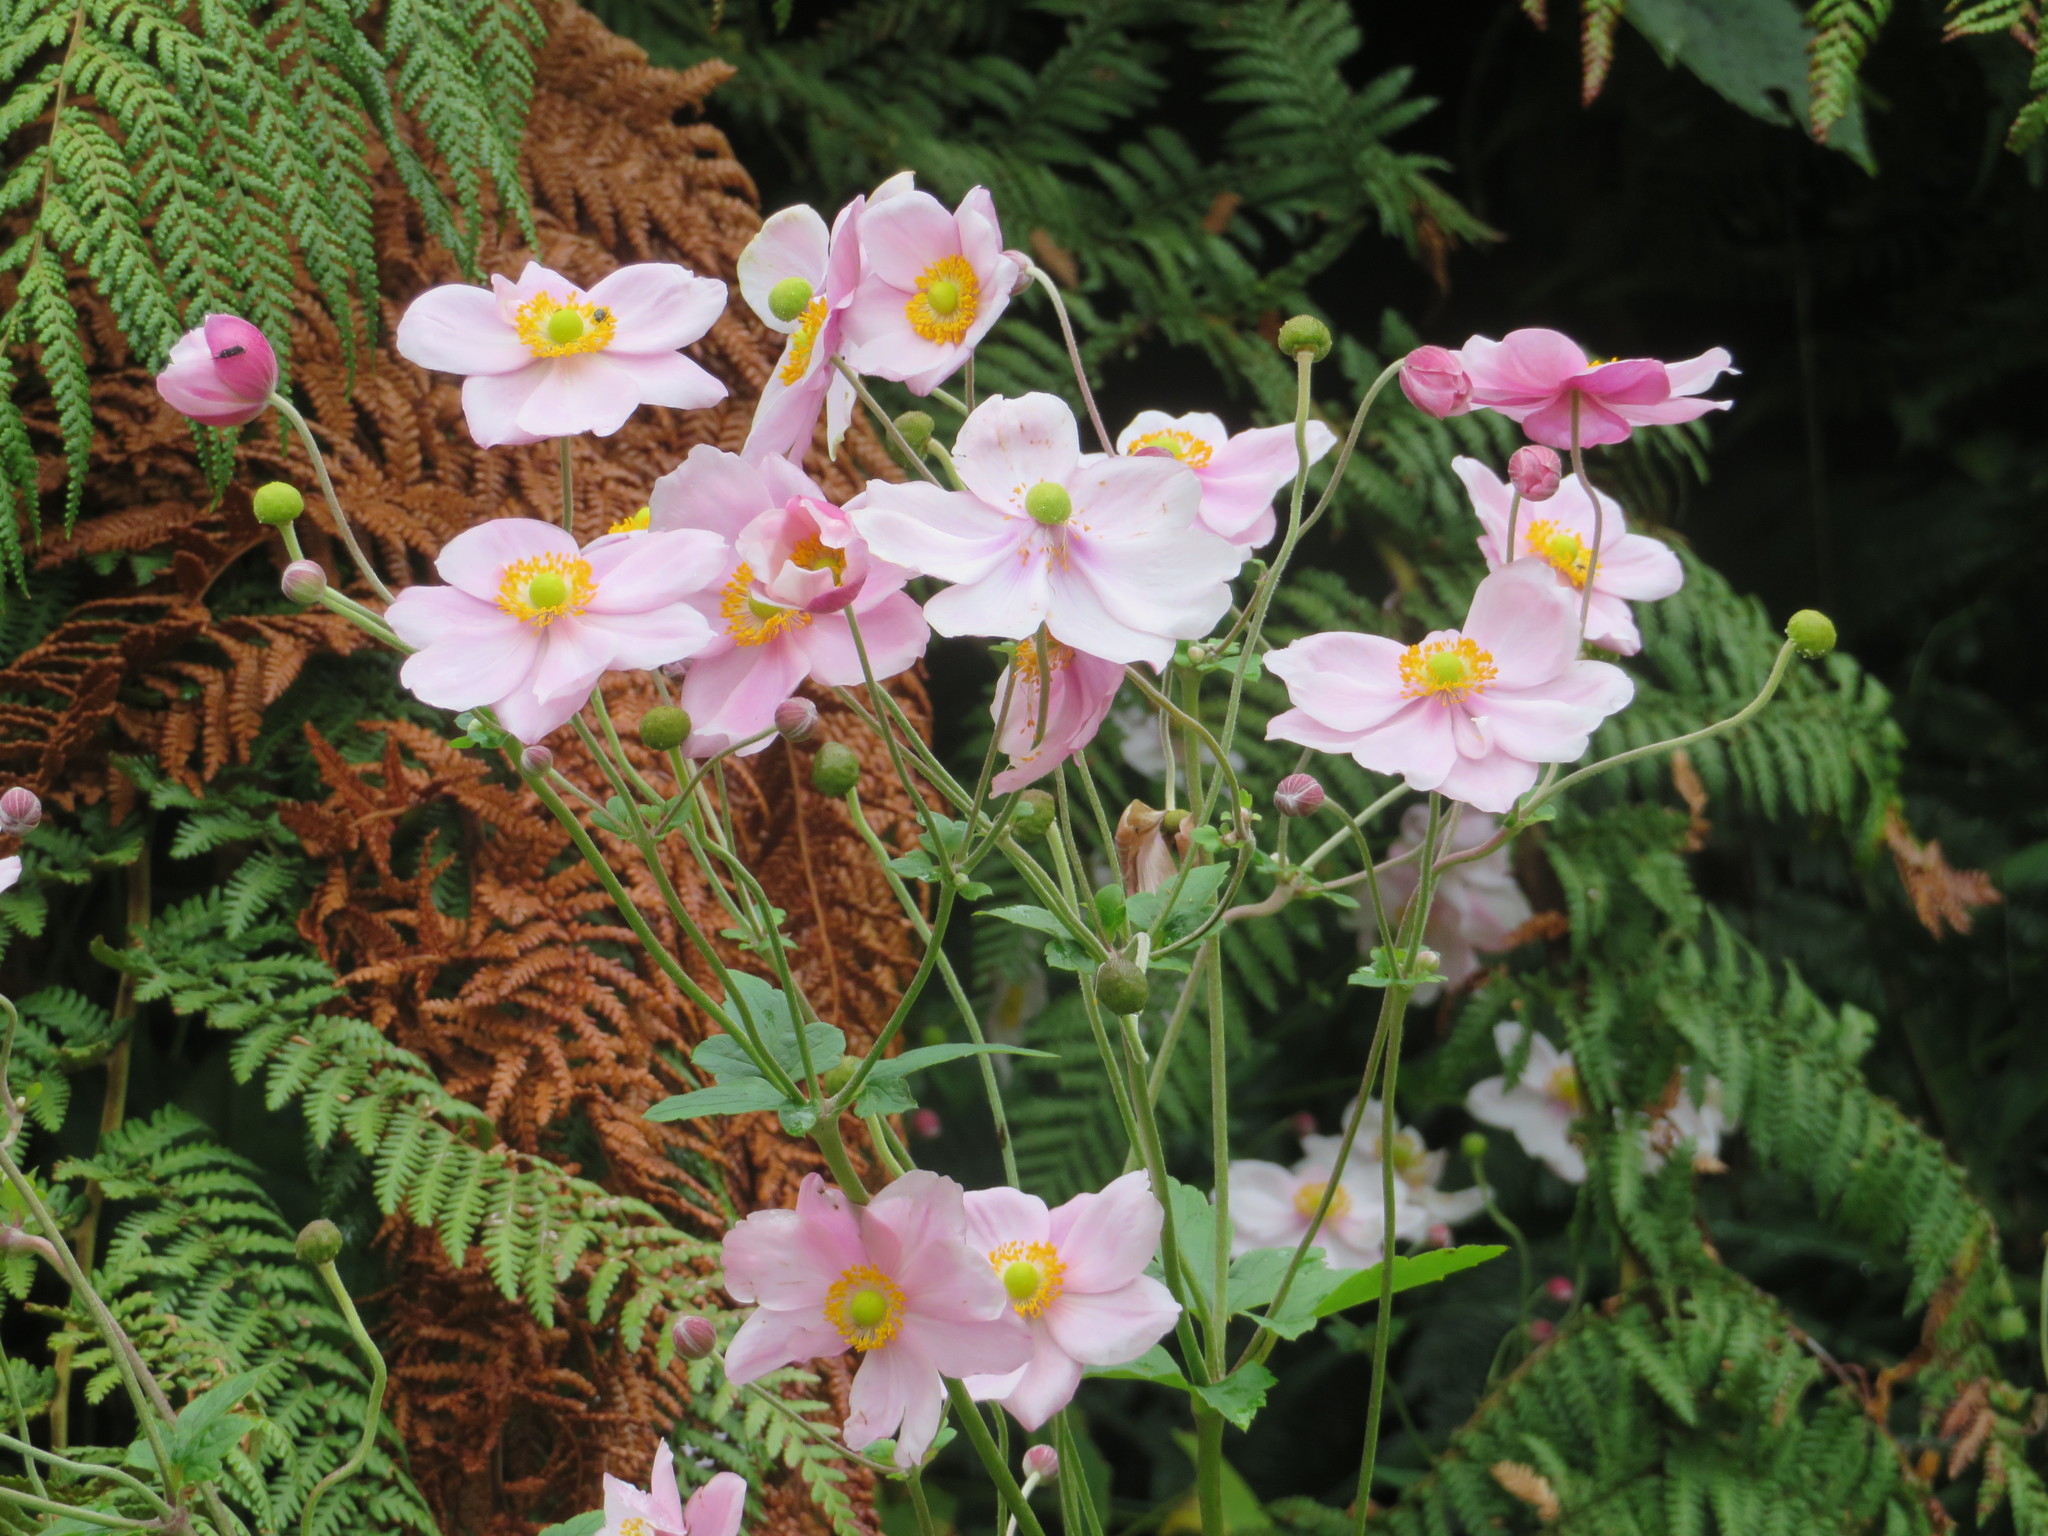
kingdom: Plantae
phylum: Tracheophyta
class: Magnoliopsida
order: Ranunculales
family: Ranunculaceae
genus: Eriocapitella
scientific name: Eriocapitella hupehensis
